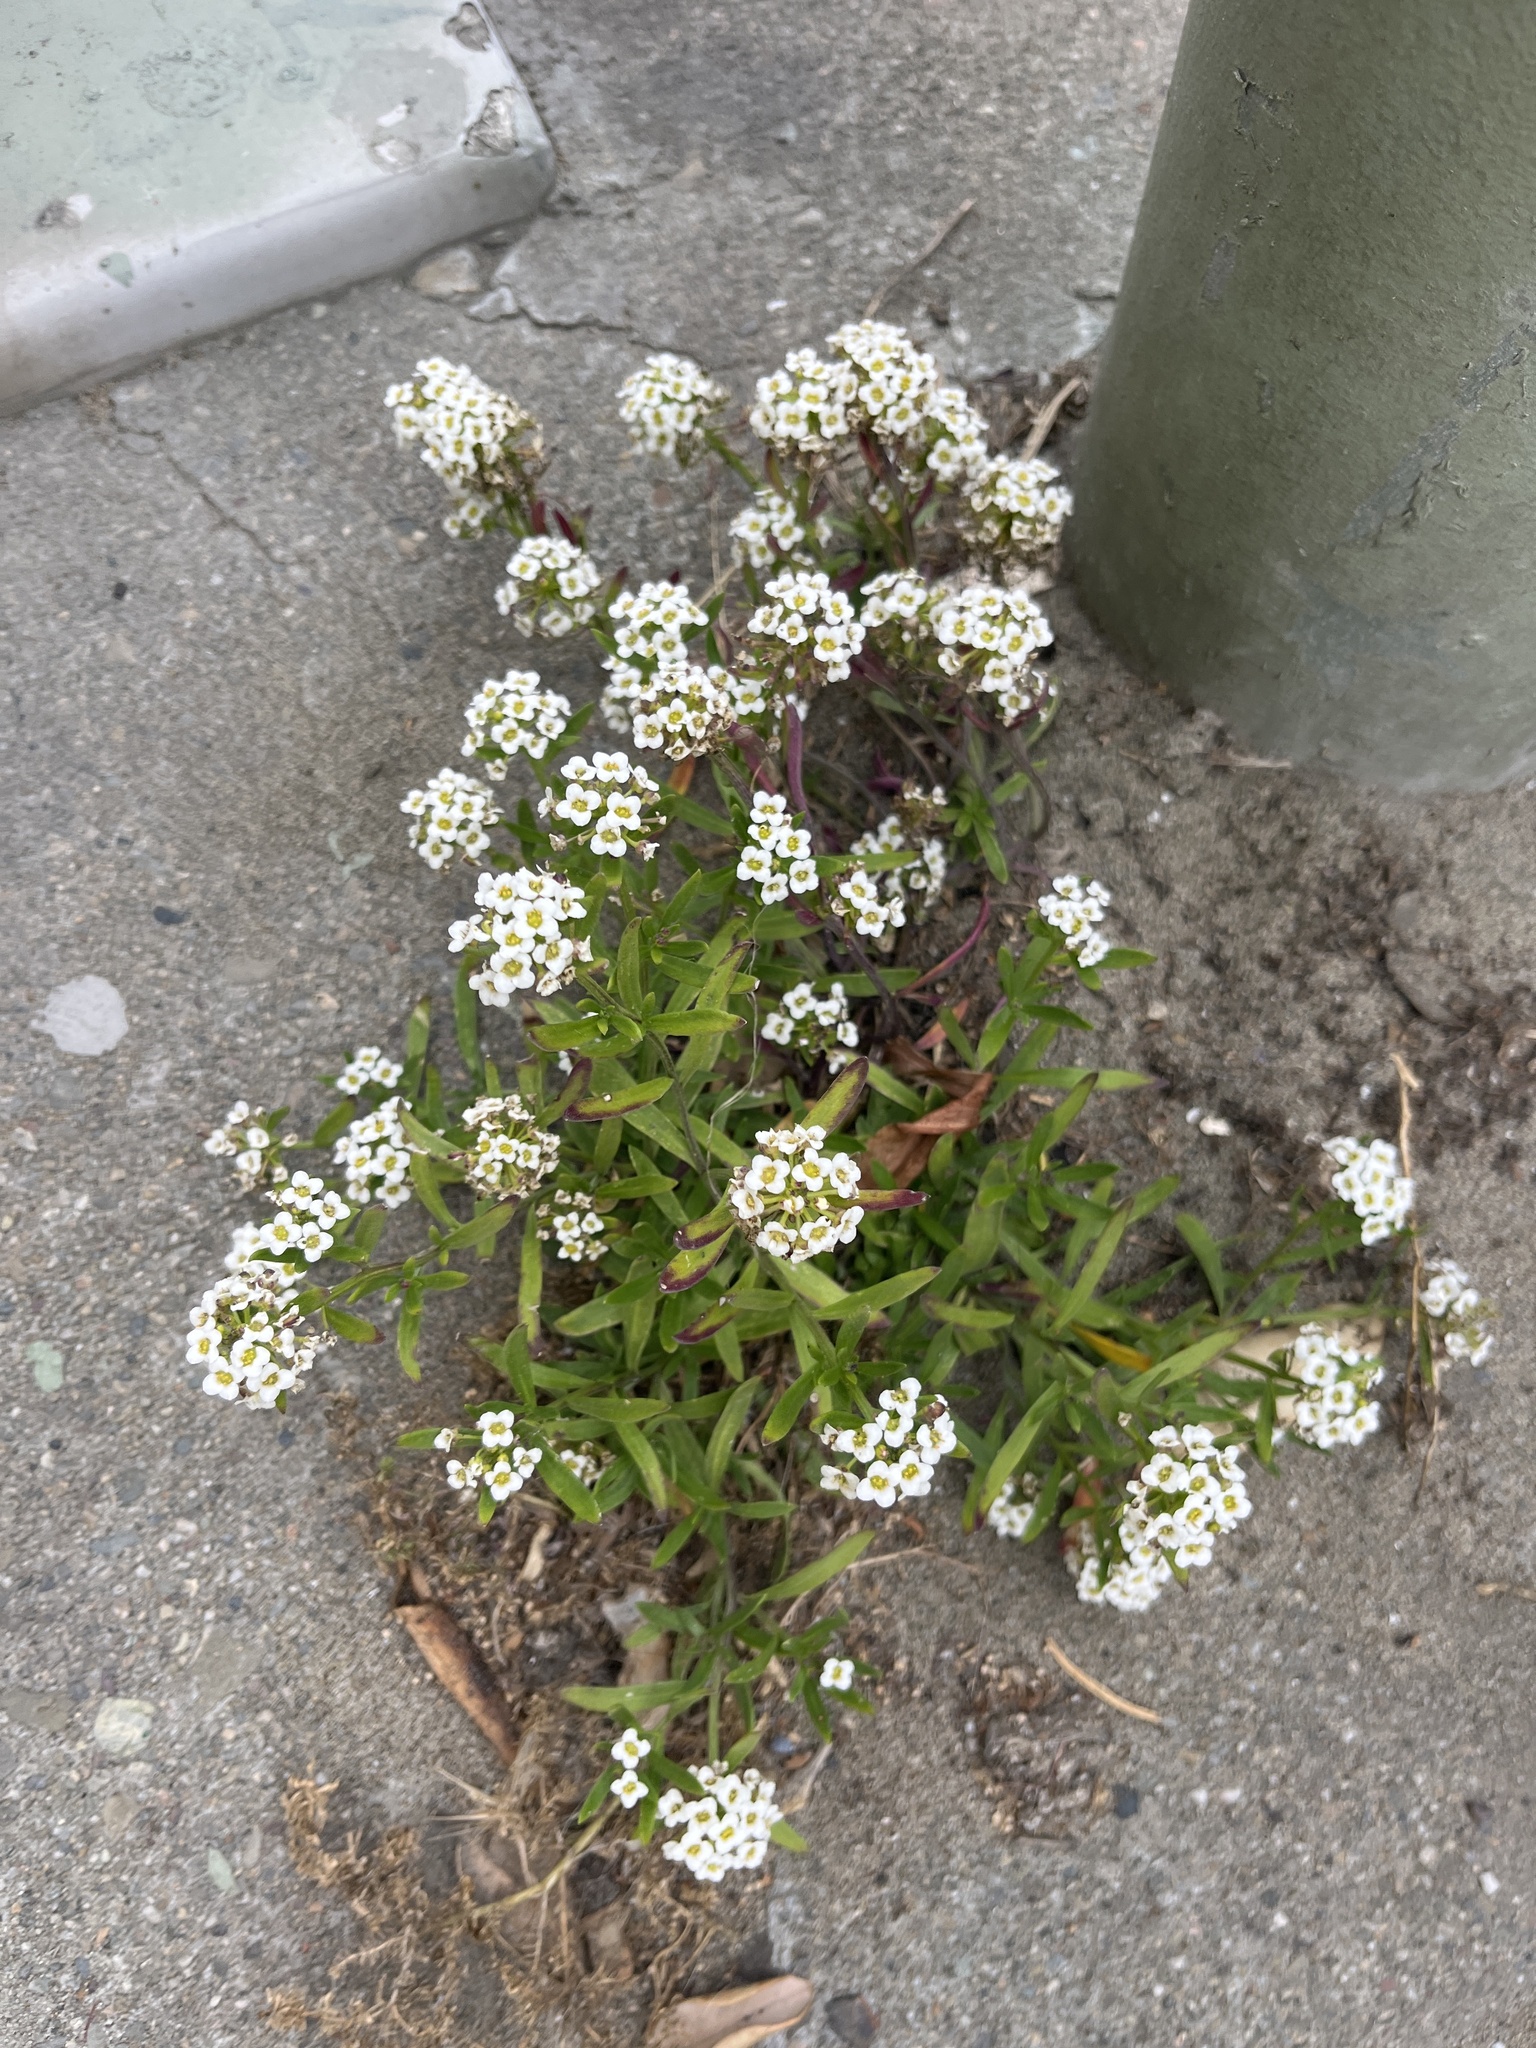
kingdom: Plantae
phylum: Tracheophyta
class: Magnoliopsida
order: Brassicales
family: Brassicaceae
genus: Lobularia
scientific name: Lobularia maritima
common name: Sweet alison
